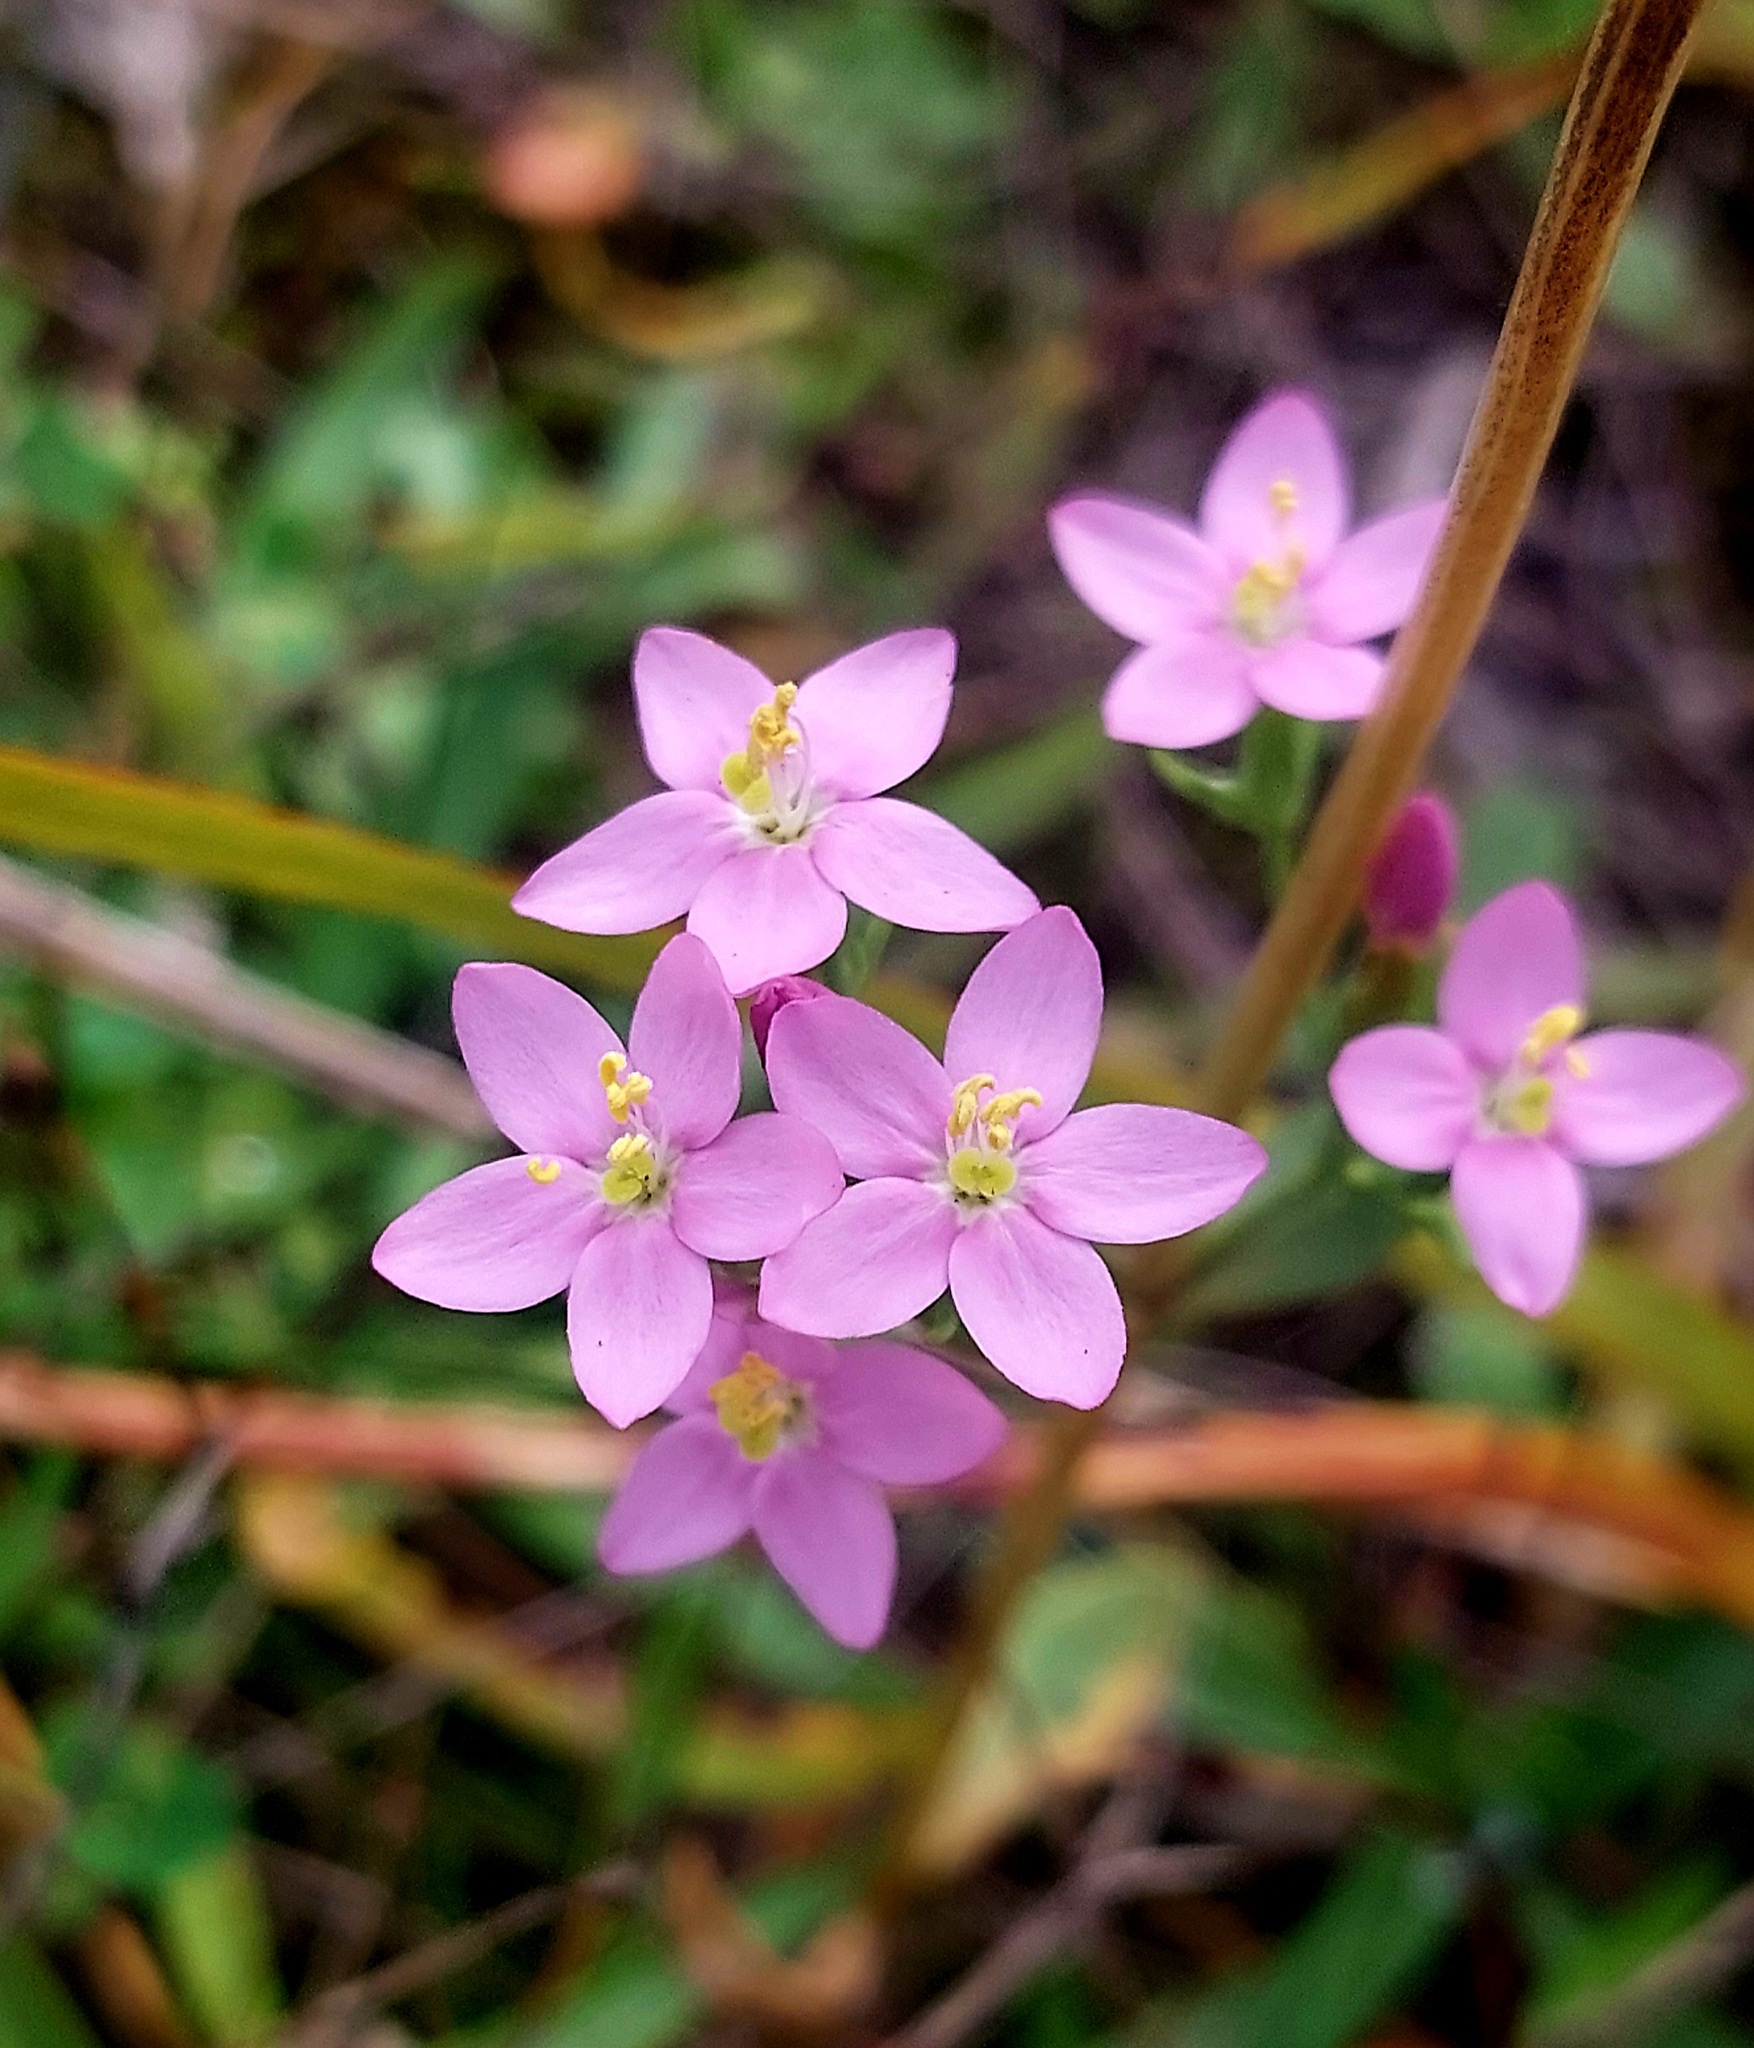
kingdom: Plantae
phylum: Tracheophyta
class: Magnoliopsida
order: Gentianales
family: Gentianaceae
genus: Centaurium
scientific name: Centaurium erythraea
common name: Common centaury
